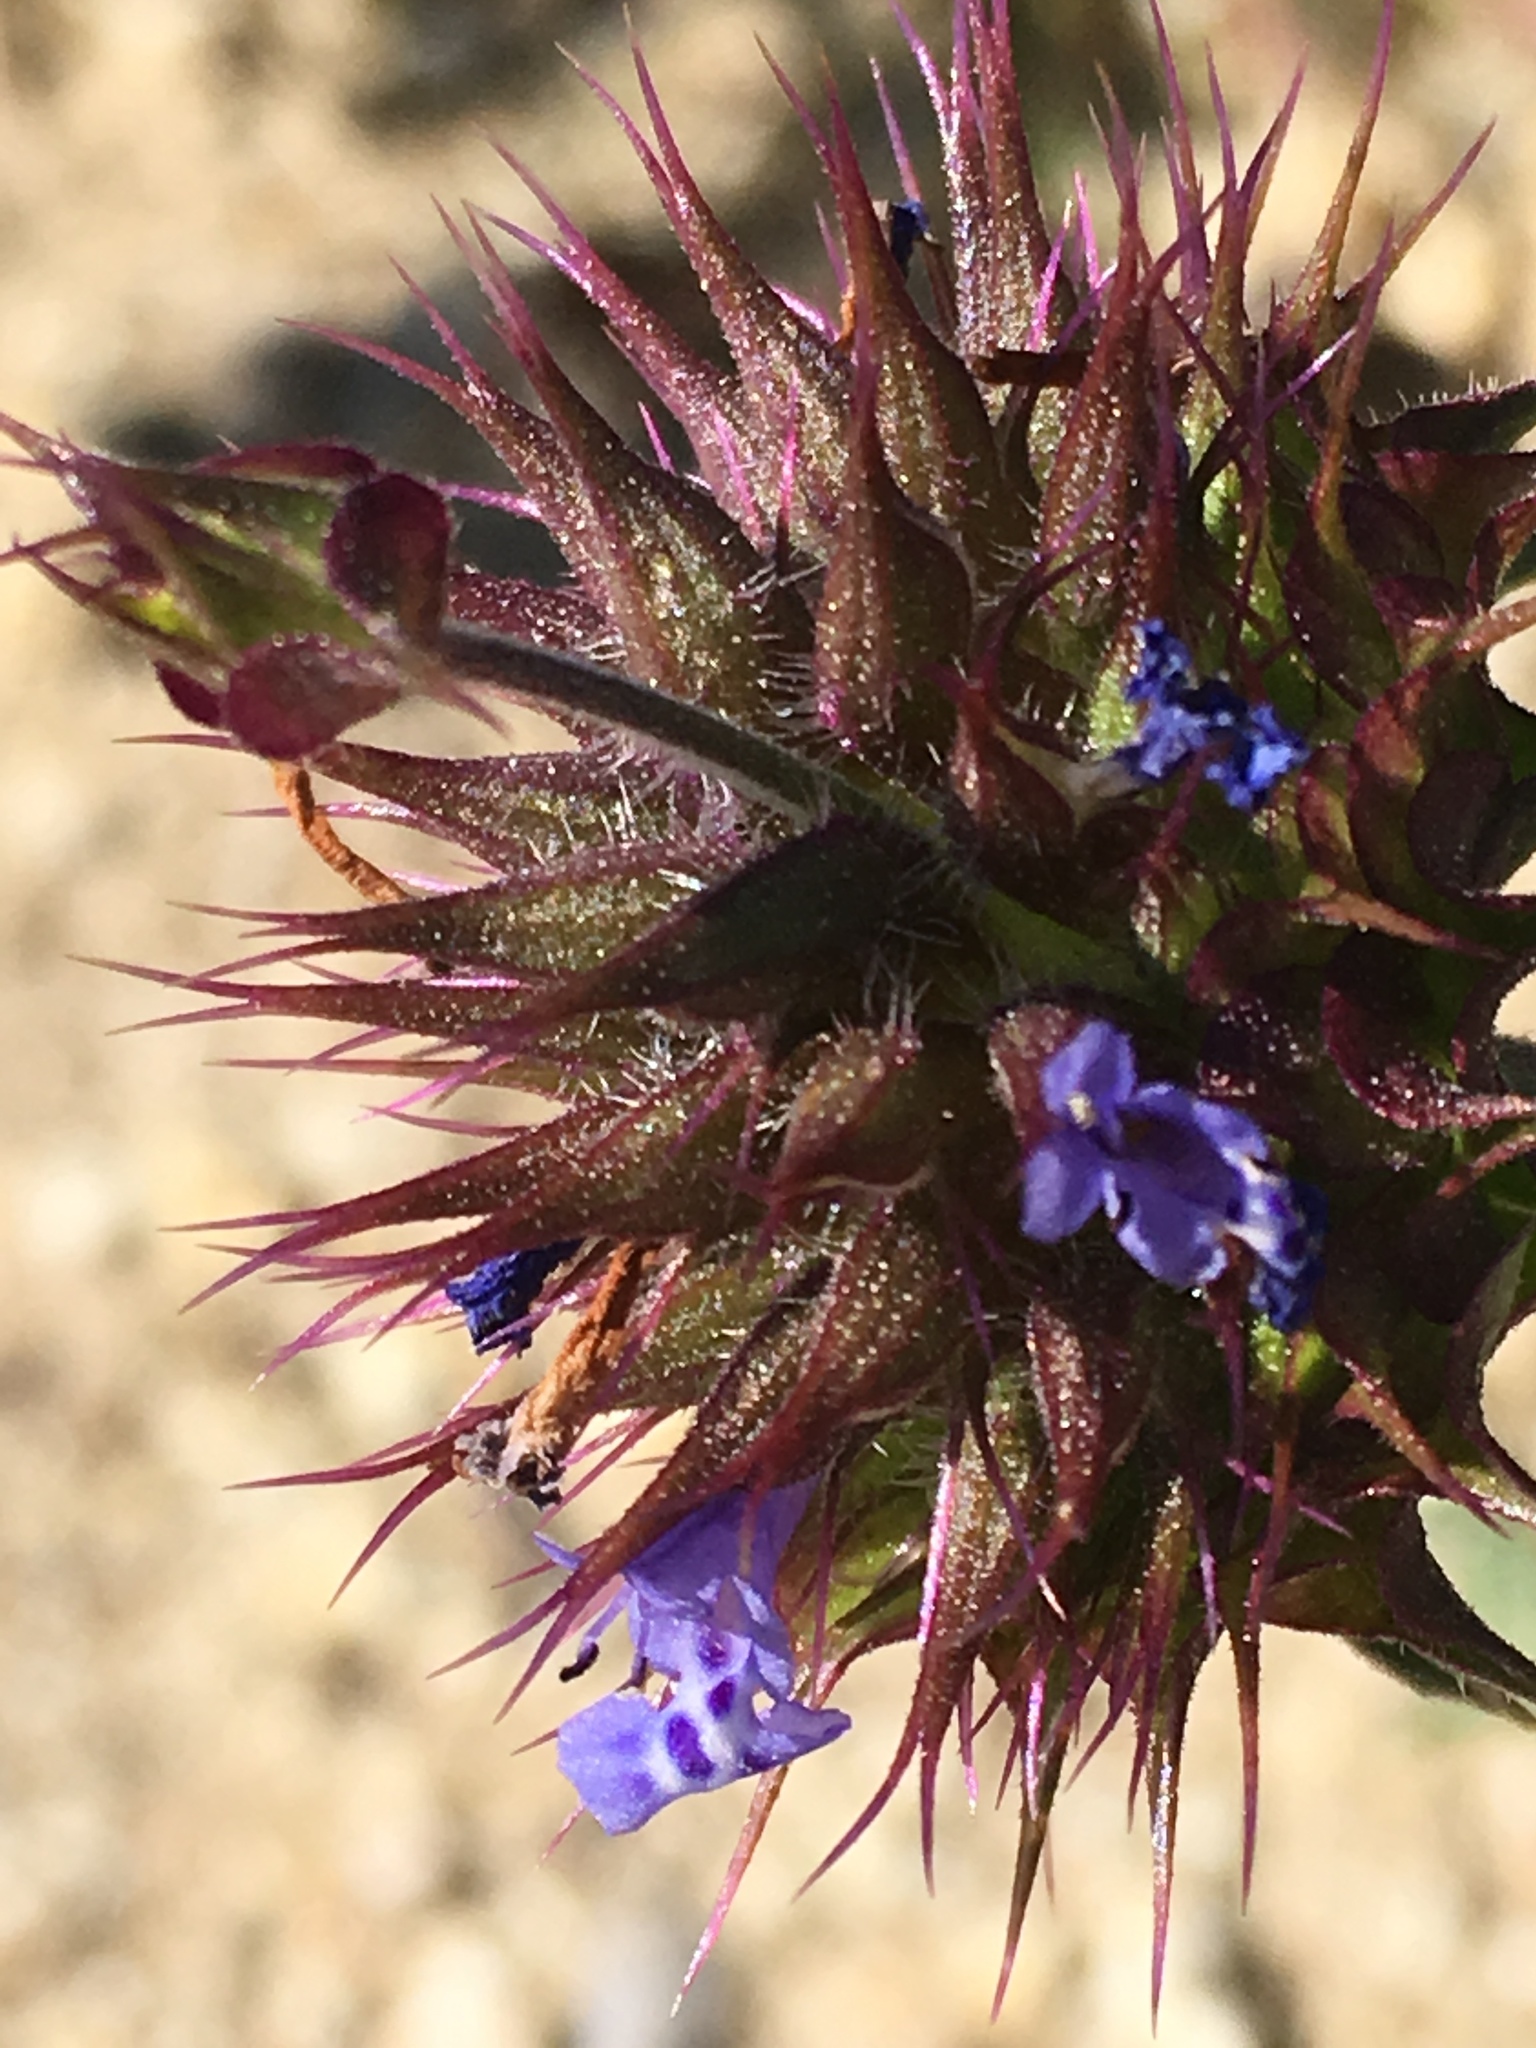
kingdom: Plantae
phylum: Tracheophyta
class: Magnoliopsida
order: Lamiales
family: Lamiaceae
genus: Salvia
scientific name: Salvia columbariae
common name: Chia
